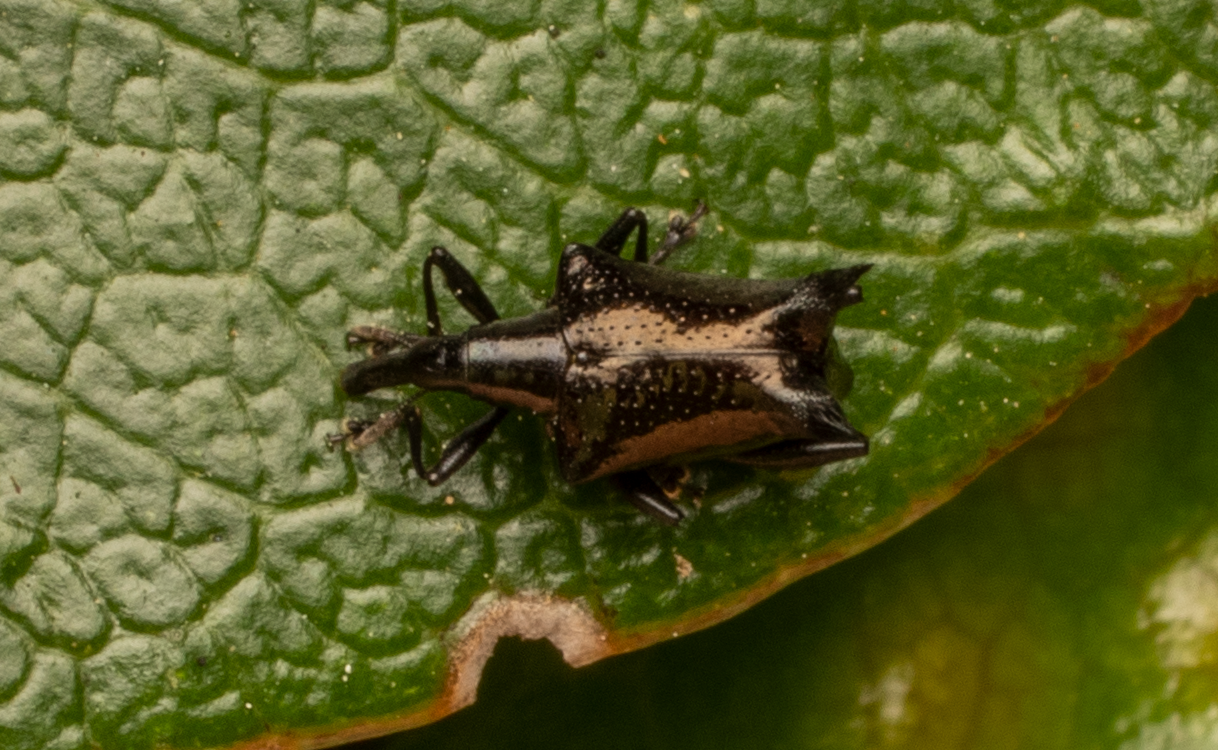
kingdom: Animalia
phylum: Arthropoda
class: Insecta
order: Coleoptera
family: Curculionidae
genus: Scolopterus
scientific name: Scolopterus penicillatus
